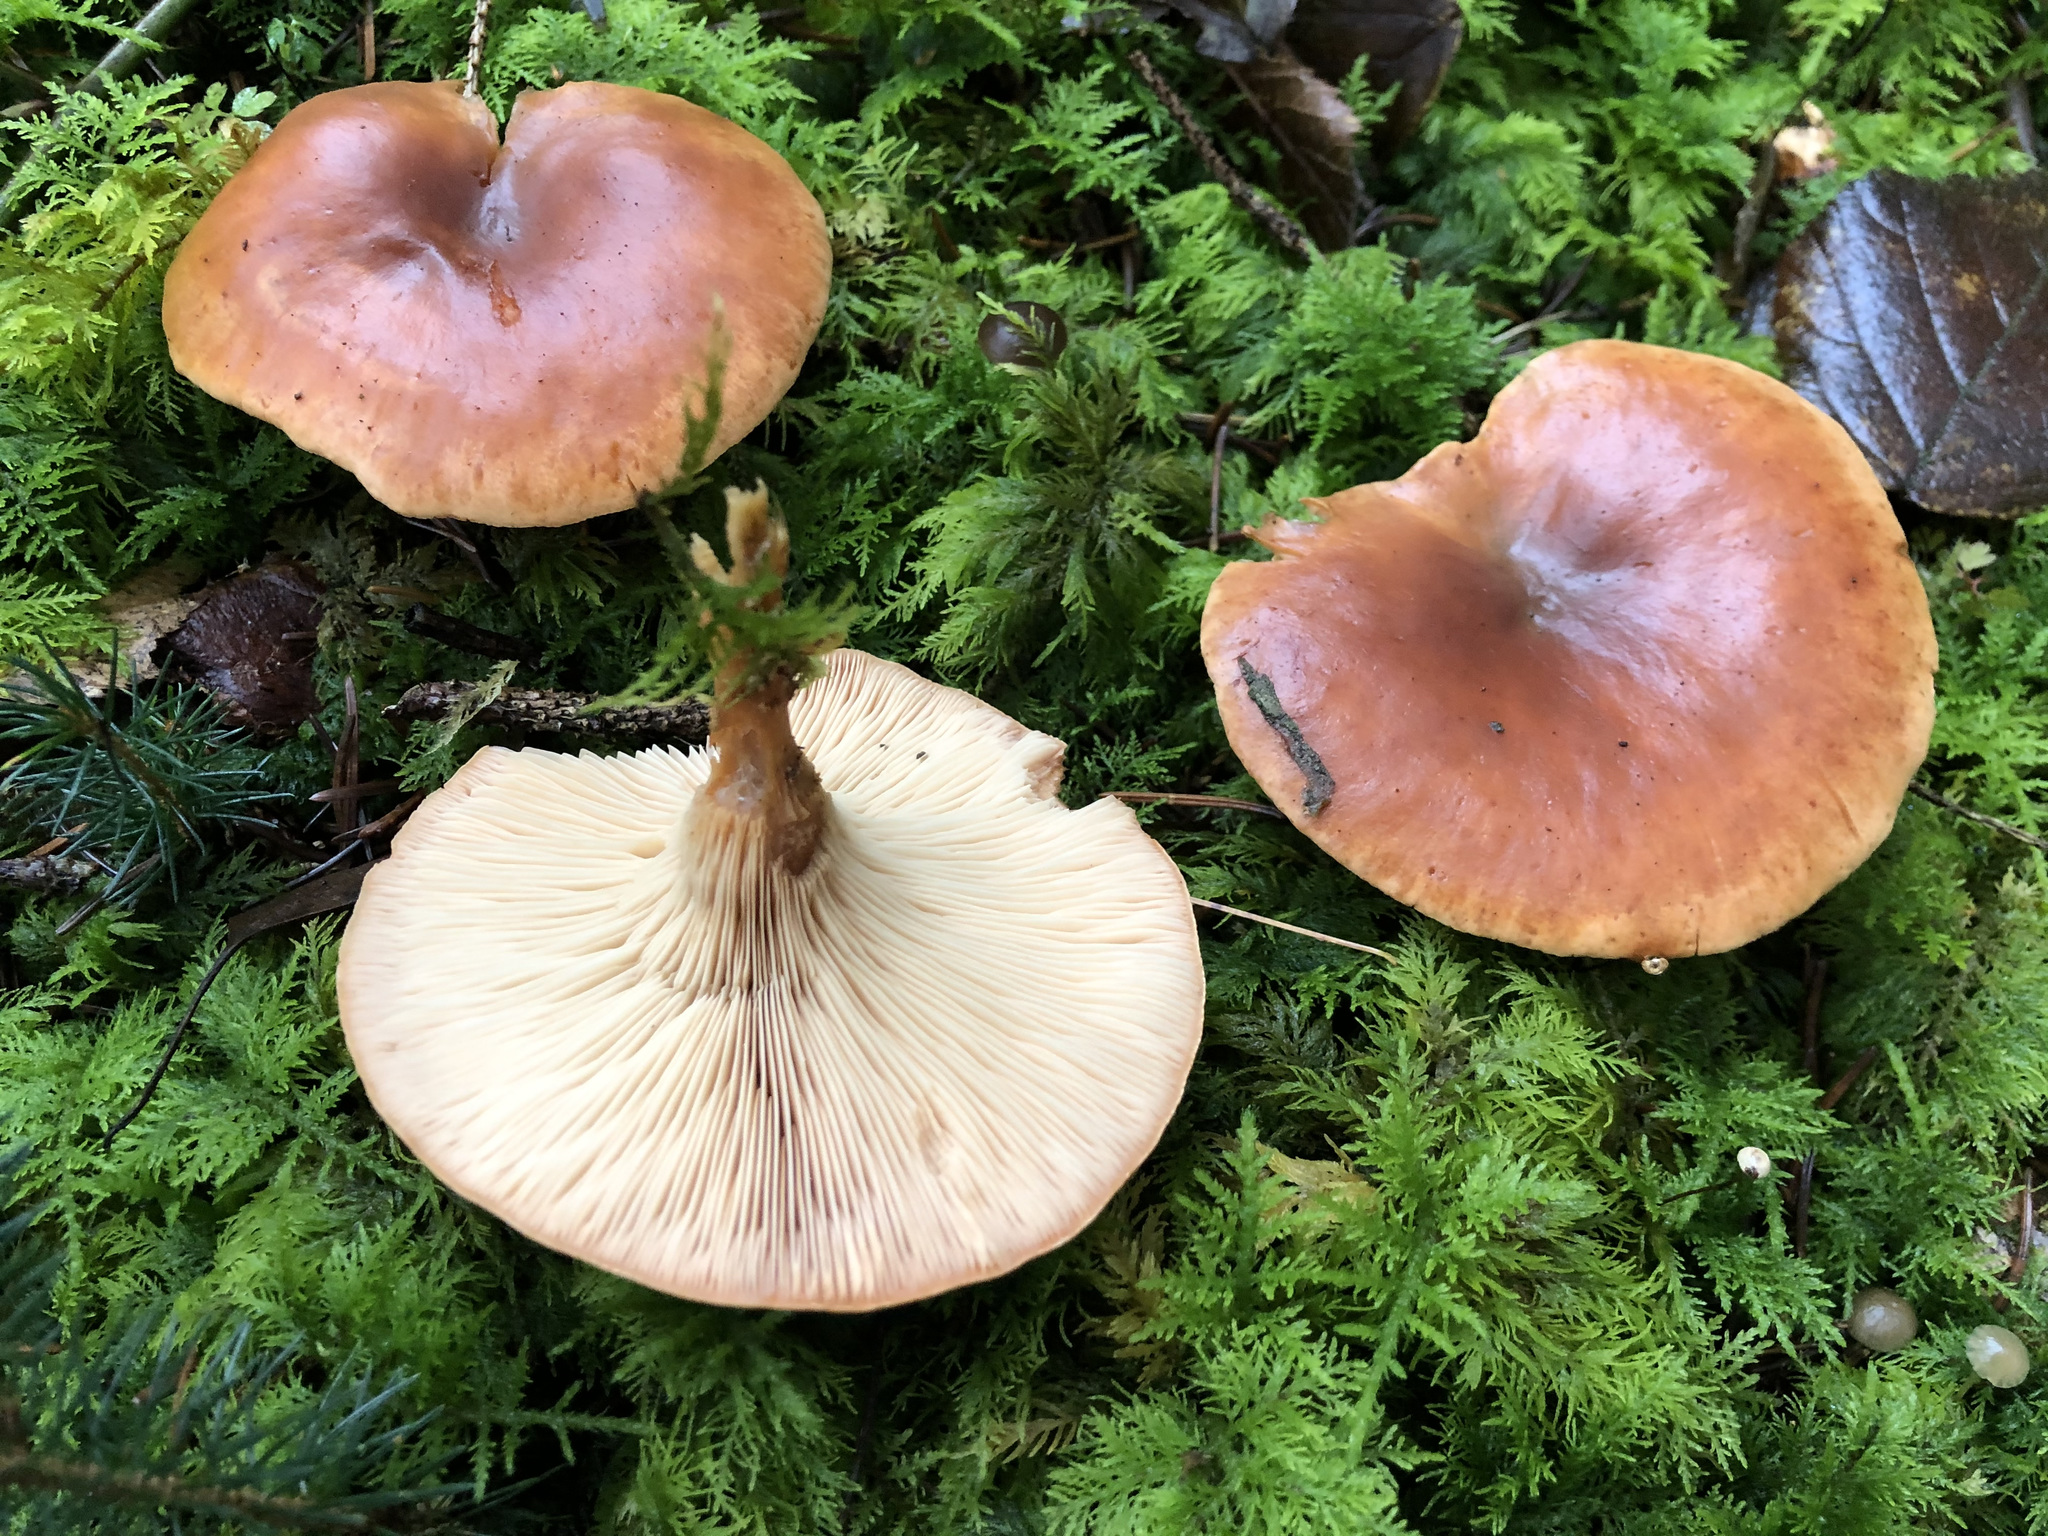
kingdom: Fungi
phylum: Basidiomycota
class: Agaricomycetes
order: Agaricales
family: Tricholomataceae
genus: Paralepista
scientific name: Paralepista flaccida
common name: Tawny funnel cap
